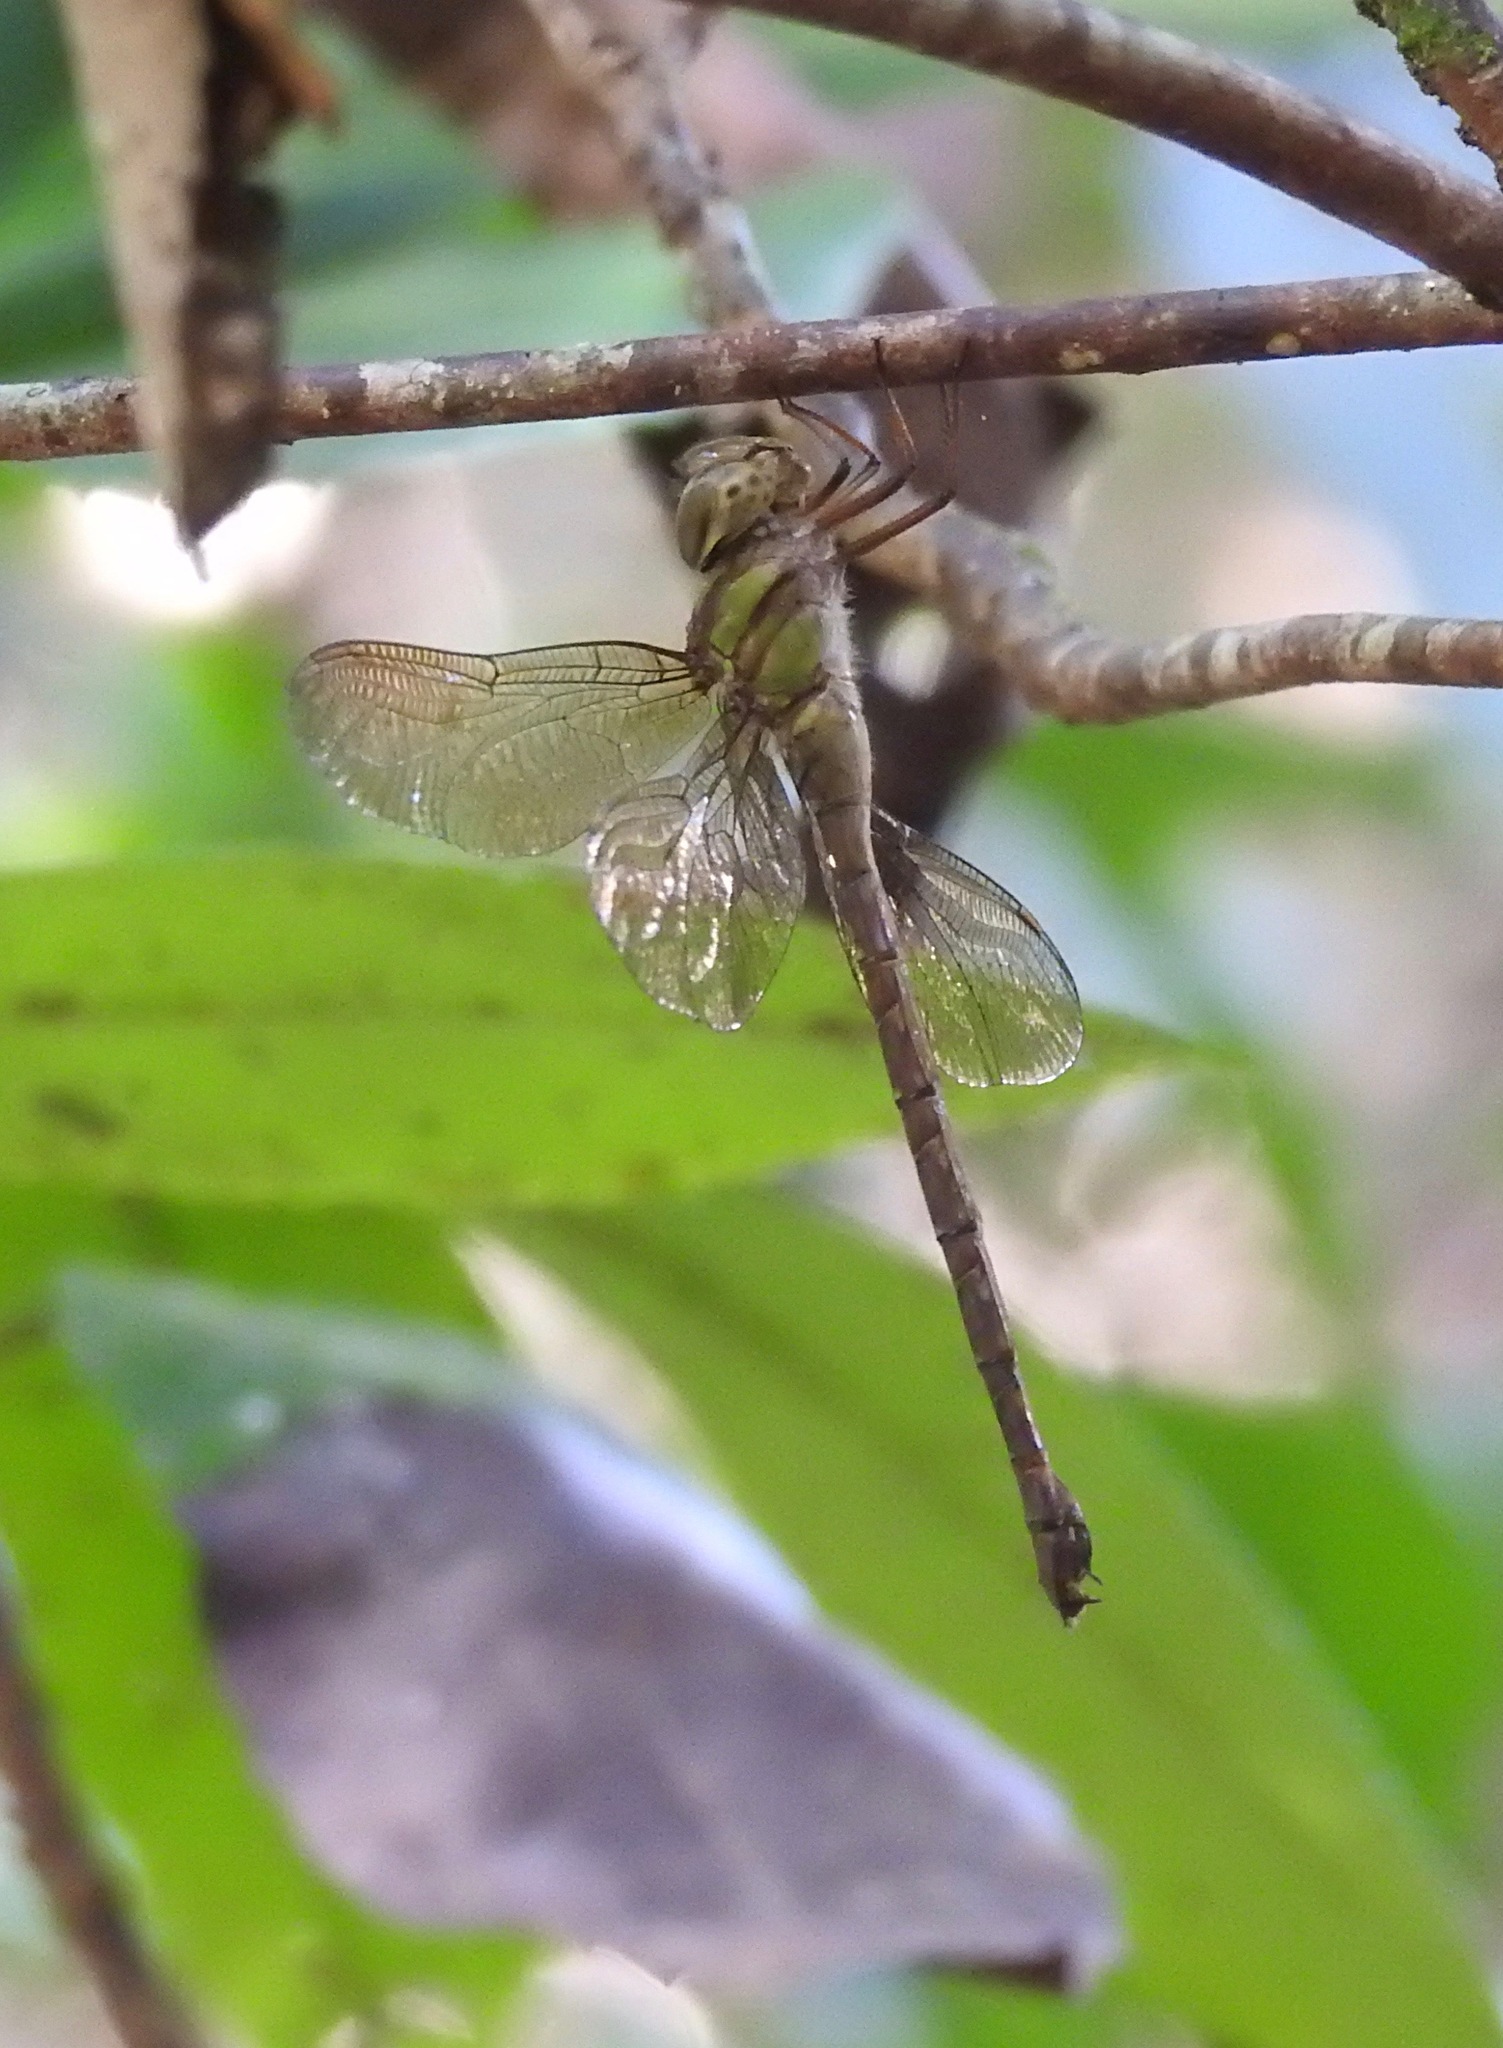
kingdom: Animalia
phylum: Arthropoda
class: Insecta
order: Odonata
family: Aeshnidae
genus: Triacanthagyna
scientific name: Triacanthagyna trifida
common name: Phantom darner
